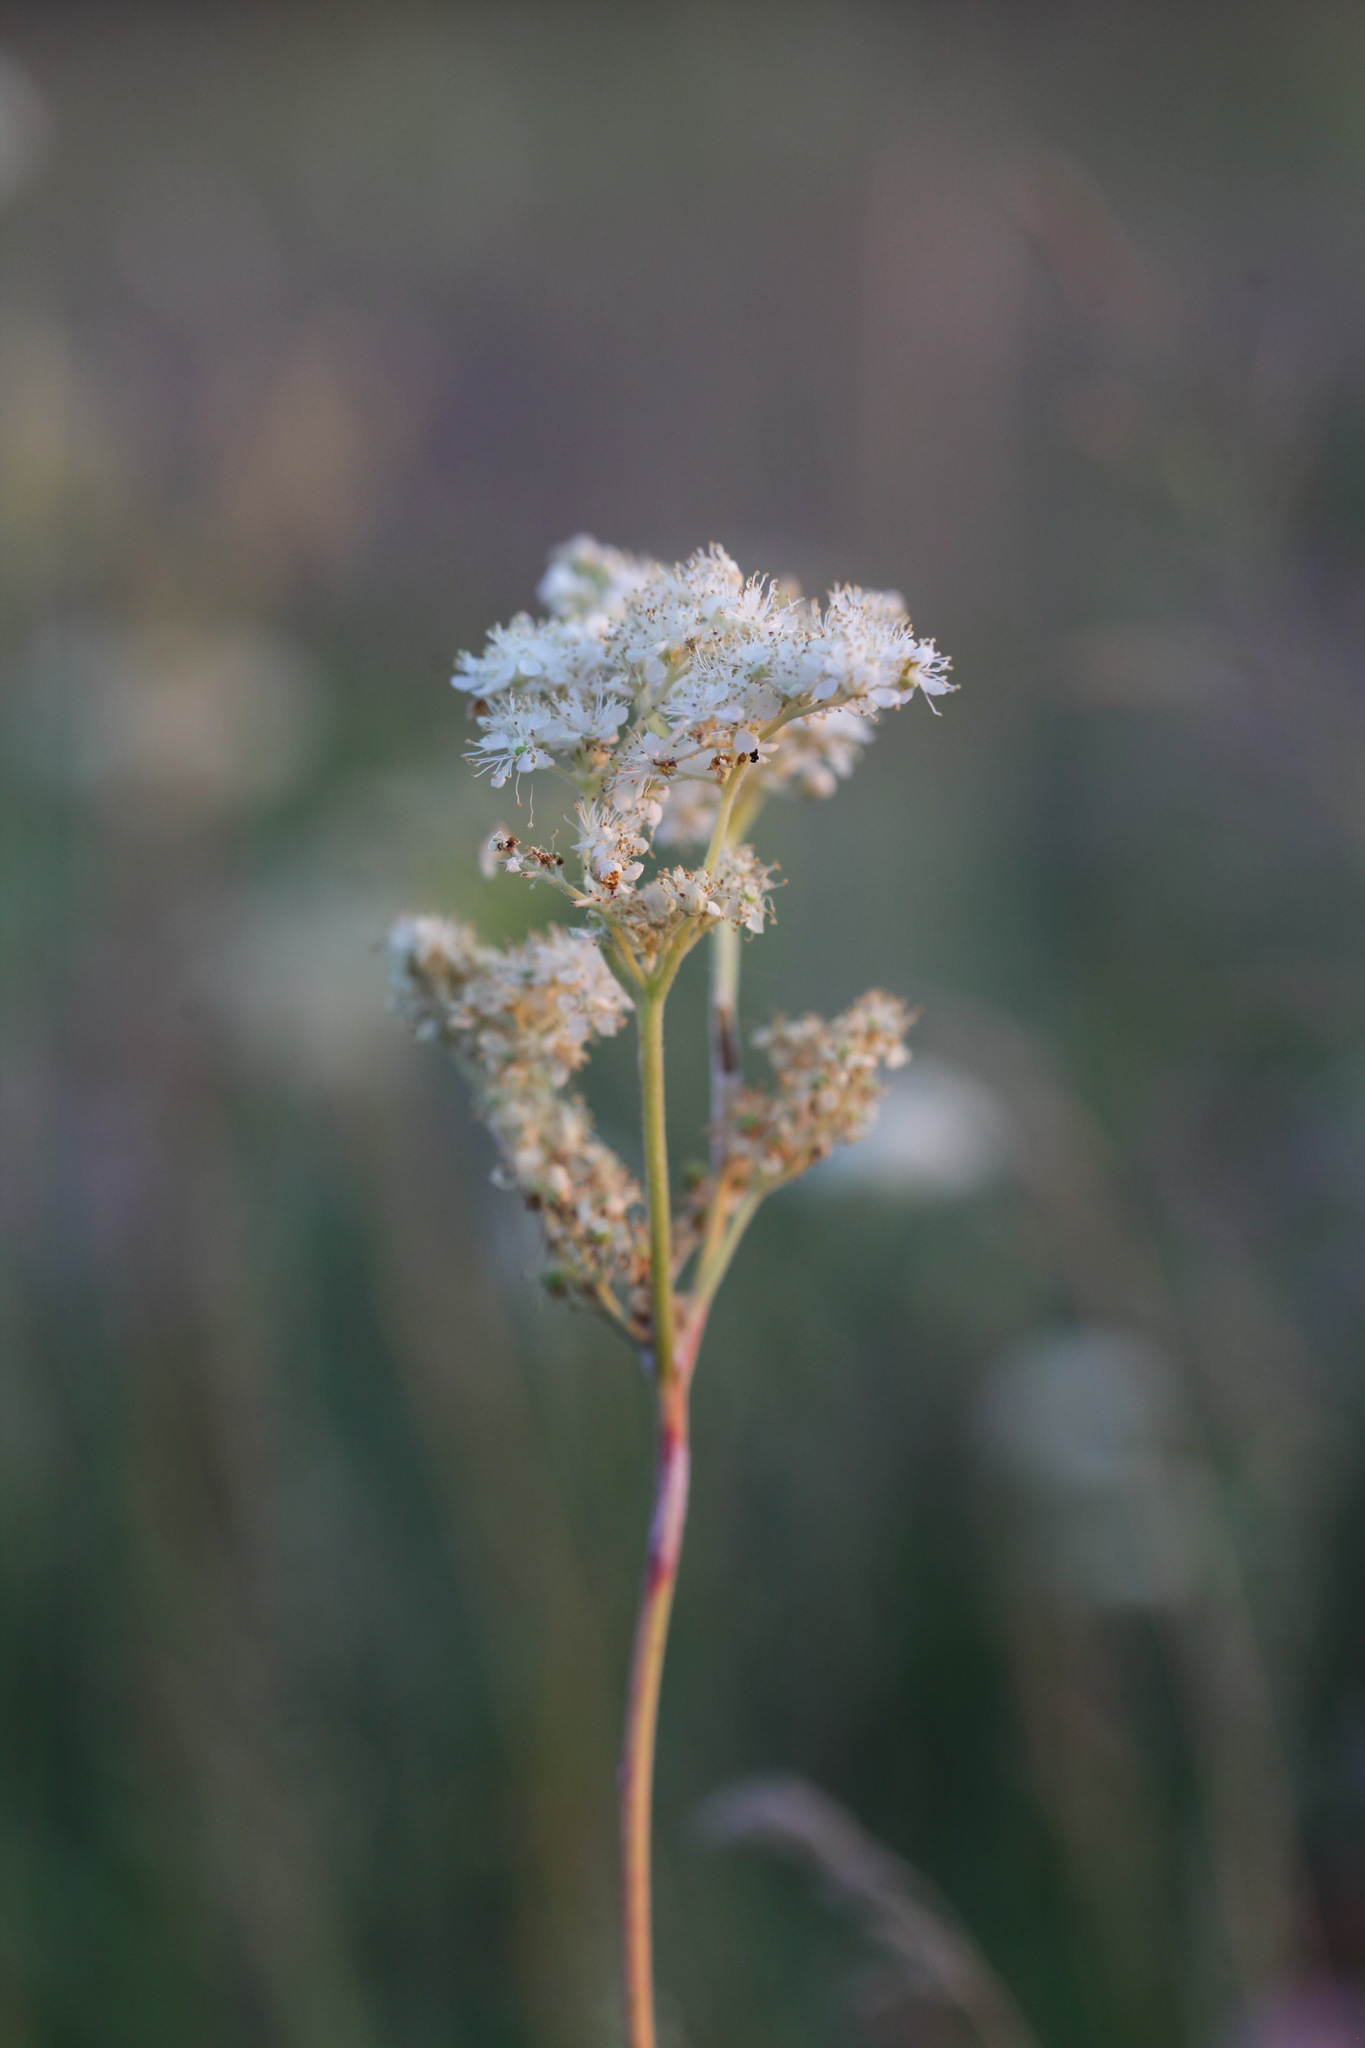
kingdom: Plantae
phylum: Tracheophyta
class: Magnoliopsida
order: Rosales
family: Rosaceae
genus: Filipendula
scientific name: Filipendula vulgaris
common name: Dropwort
